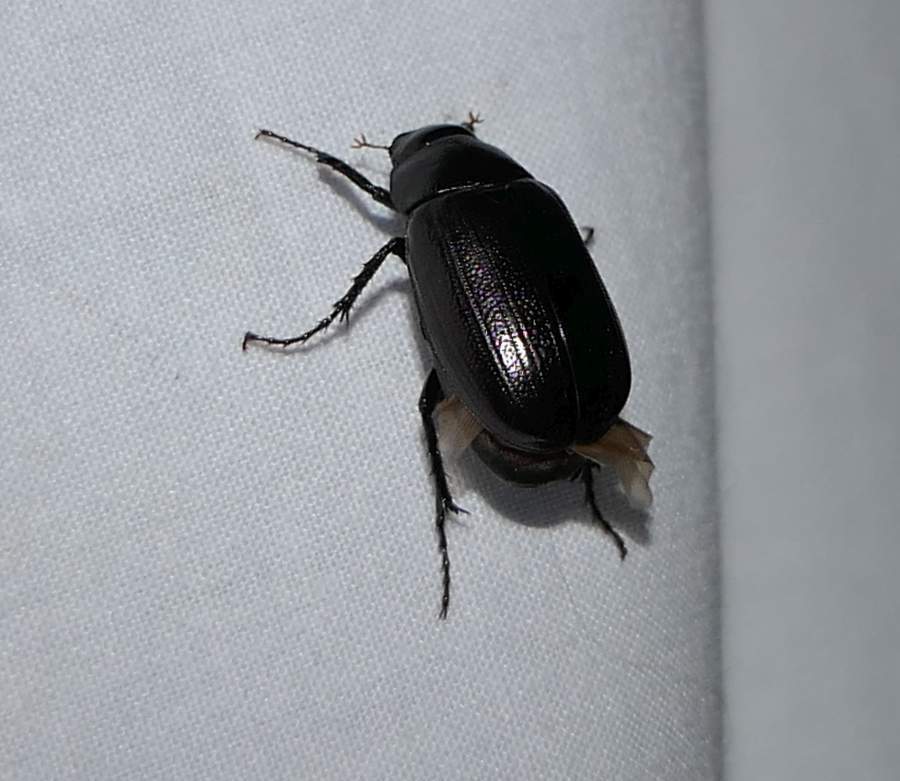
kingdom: Animalia
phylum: Arthropoda
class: Insecta
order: Coleoptera
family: Scarabaeidae
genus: Diplotaxis
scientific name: Diplotaxis tristis
